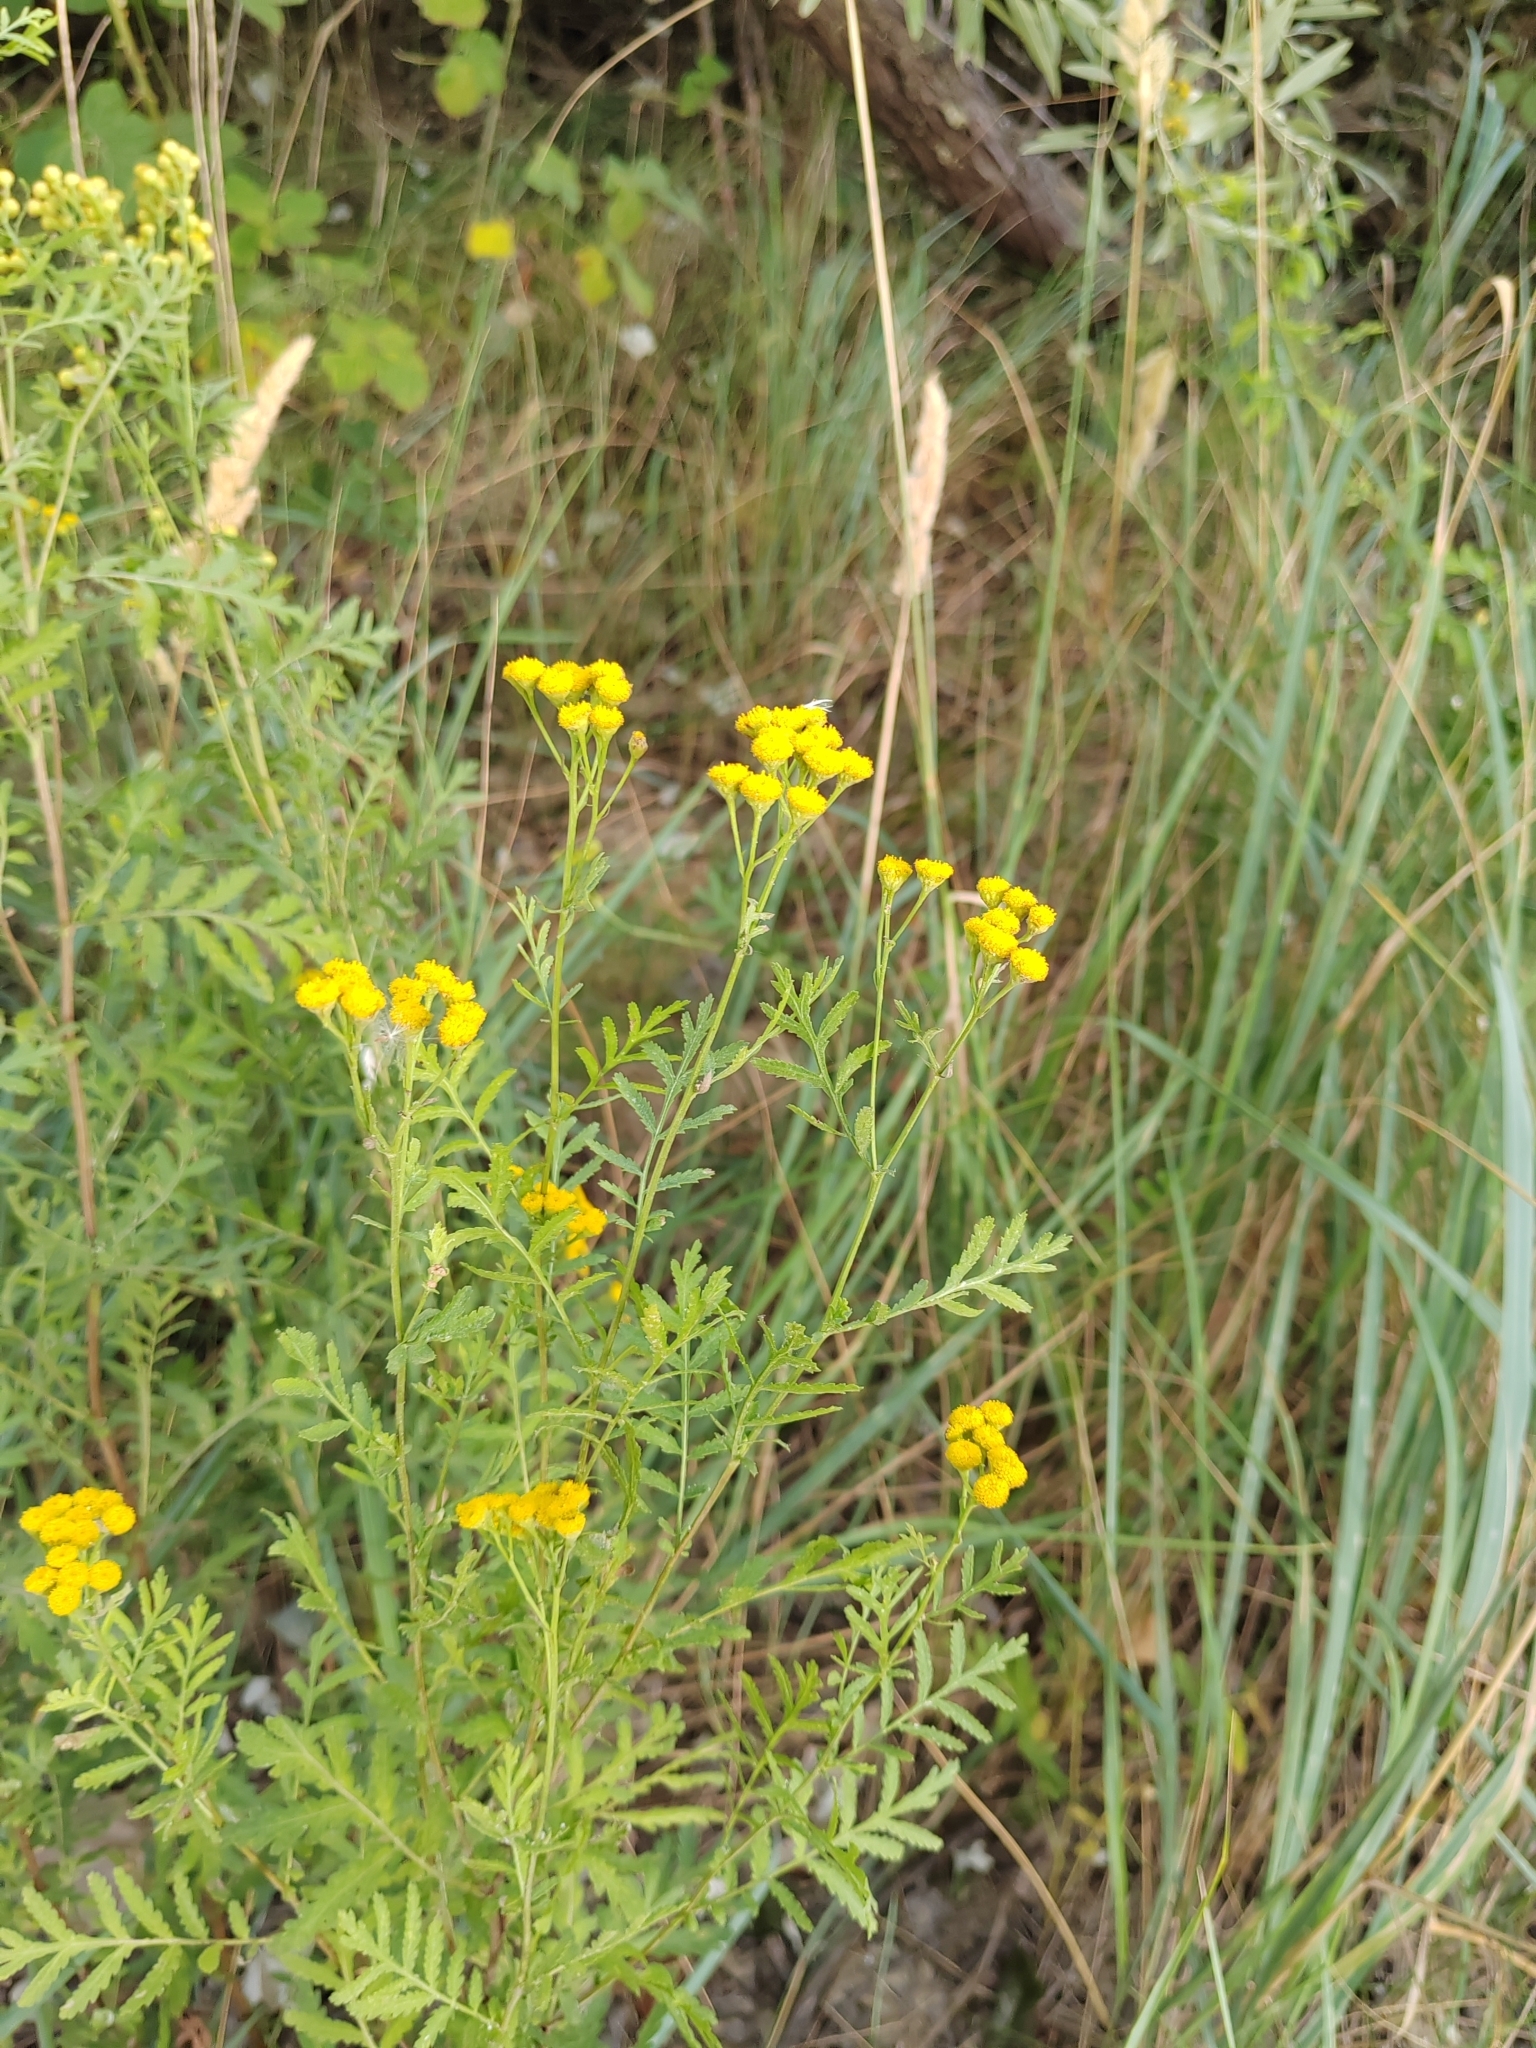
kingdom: Plantae
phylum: Tracheophyta
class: Magnoliopsida
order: Asterales
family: Asteraceae
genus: Tanacetum
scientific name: Tanacetum vulgare
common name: Common tansy
